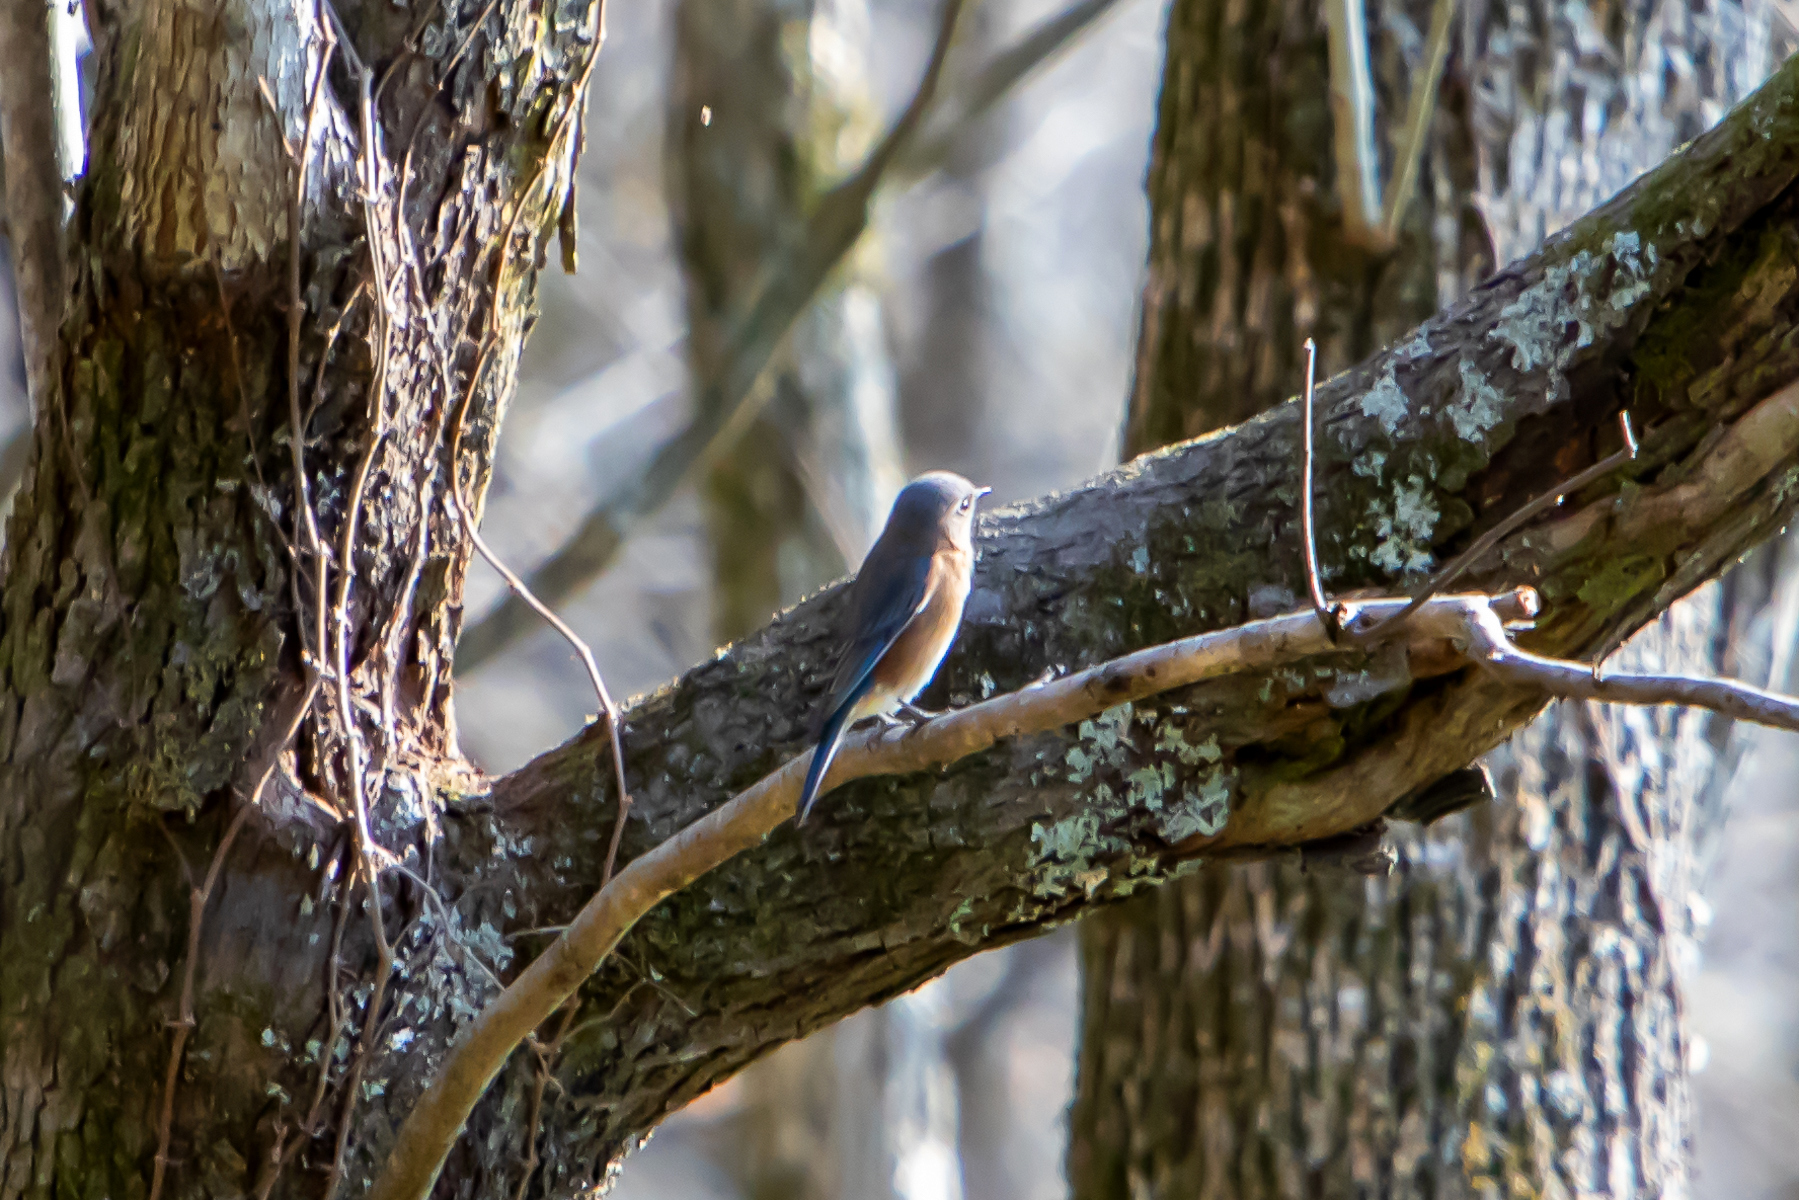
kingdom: Animalia
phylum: Chordata
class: Aves
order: Passeriformes
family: Turdidae
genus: Sialia
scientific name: Sialia sialis
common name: Eastern bluebird
